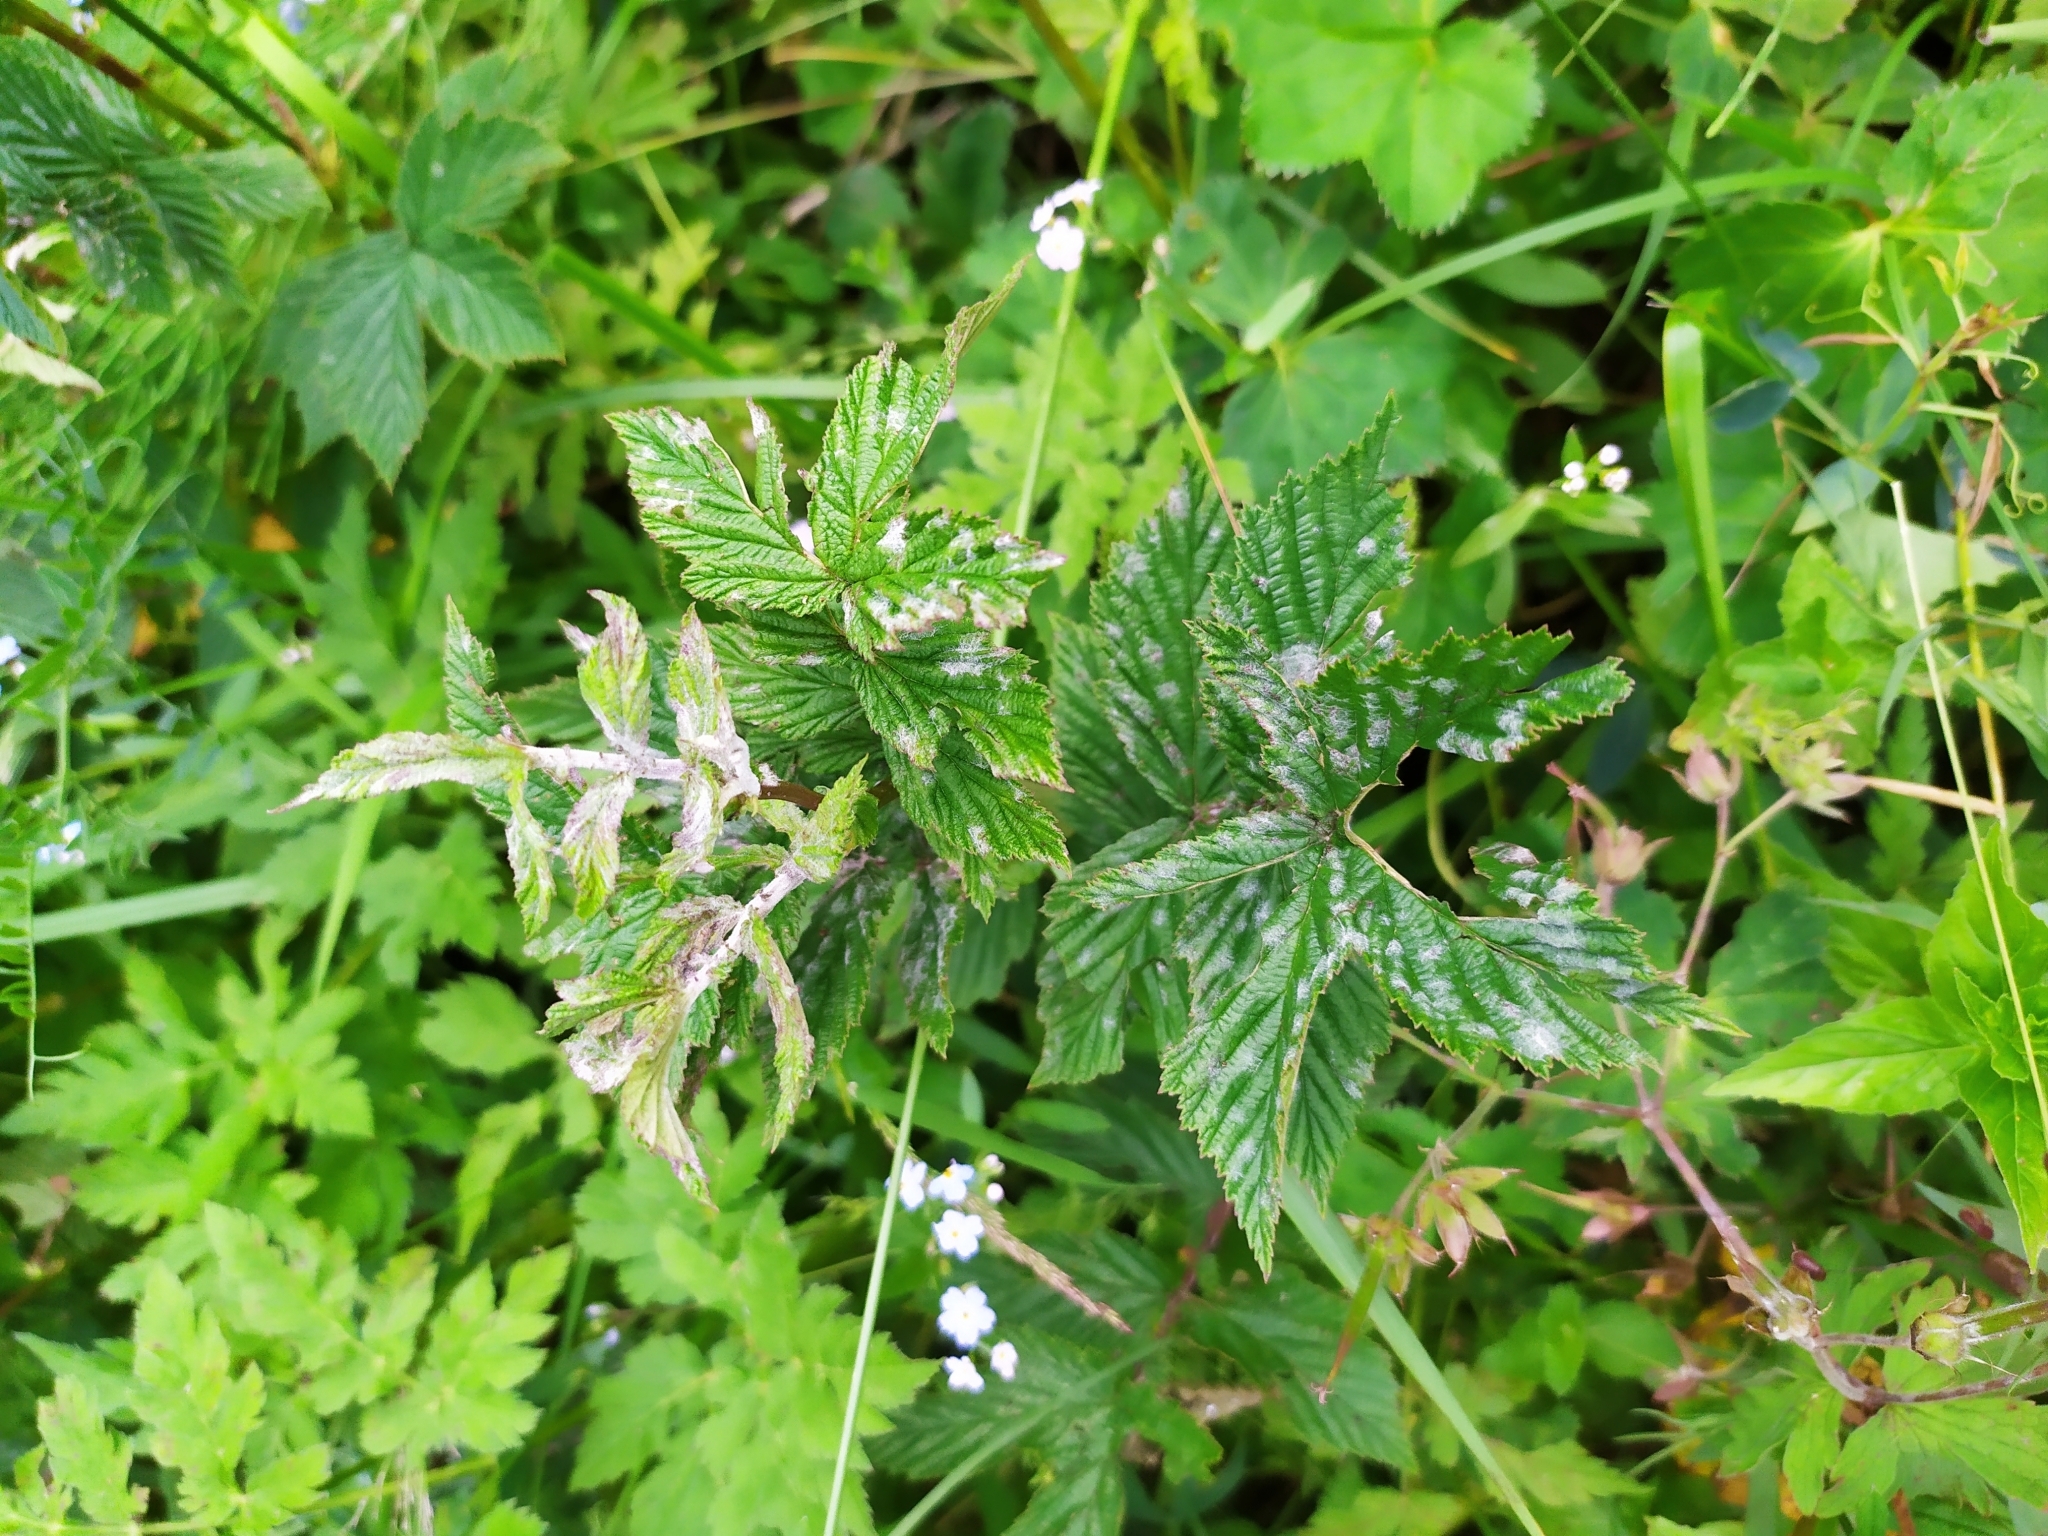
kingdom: Fungi
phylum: Ascomycota
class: Leotiomycetes
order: Helotiales
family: Erysiphaceae
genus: Podosphaera
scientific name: Podosphaera filipendulae
